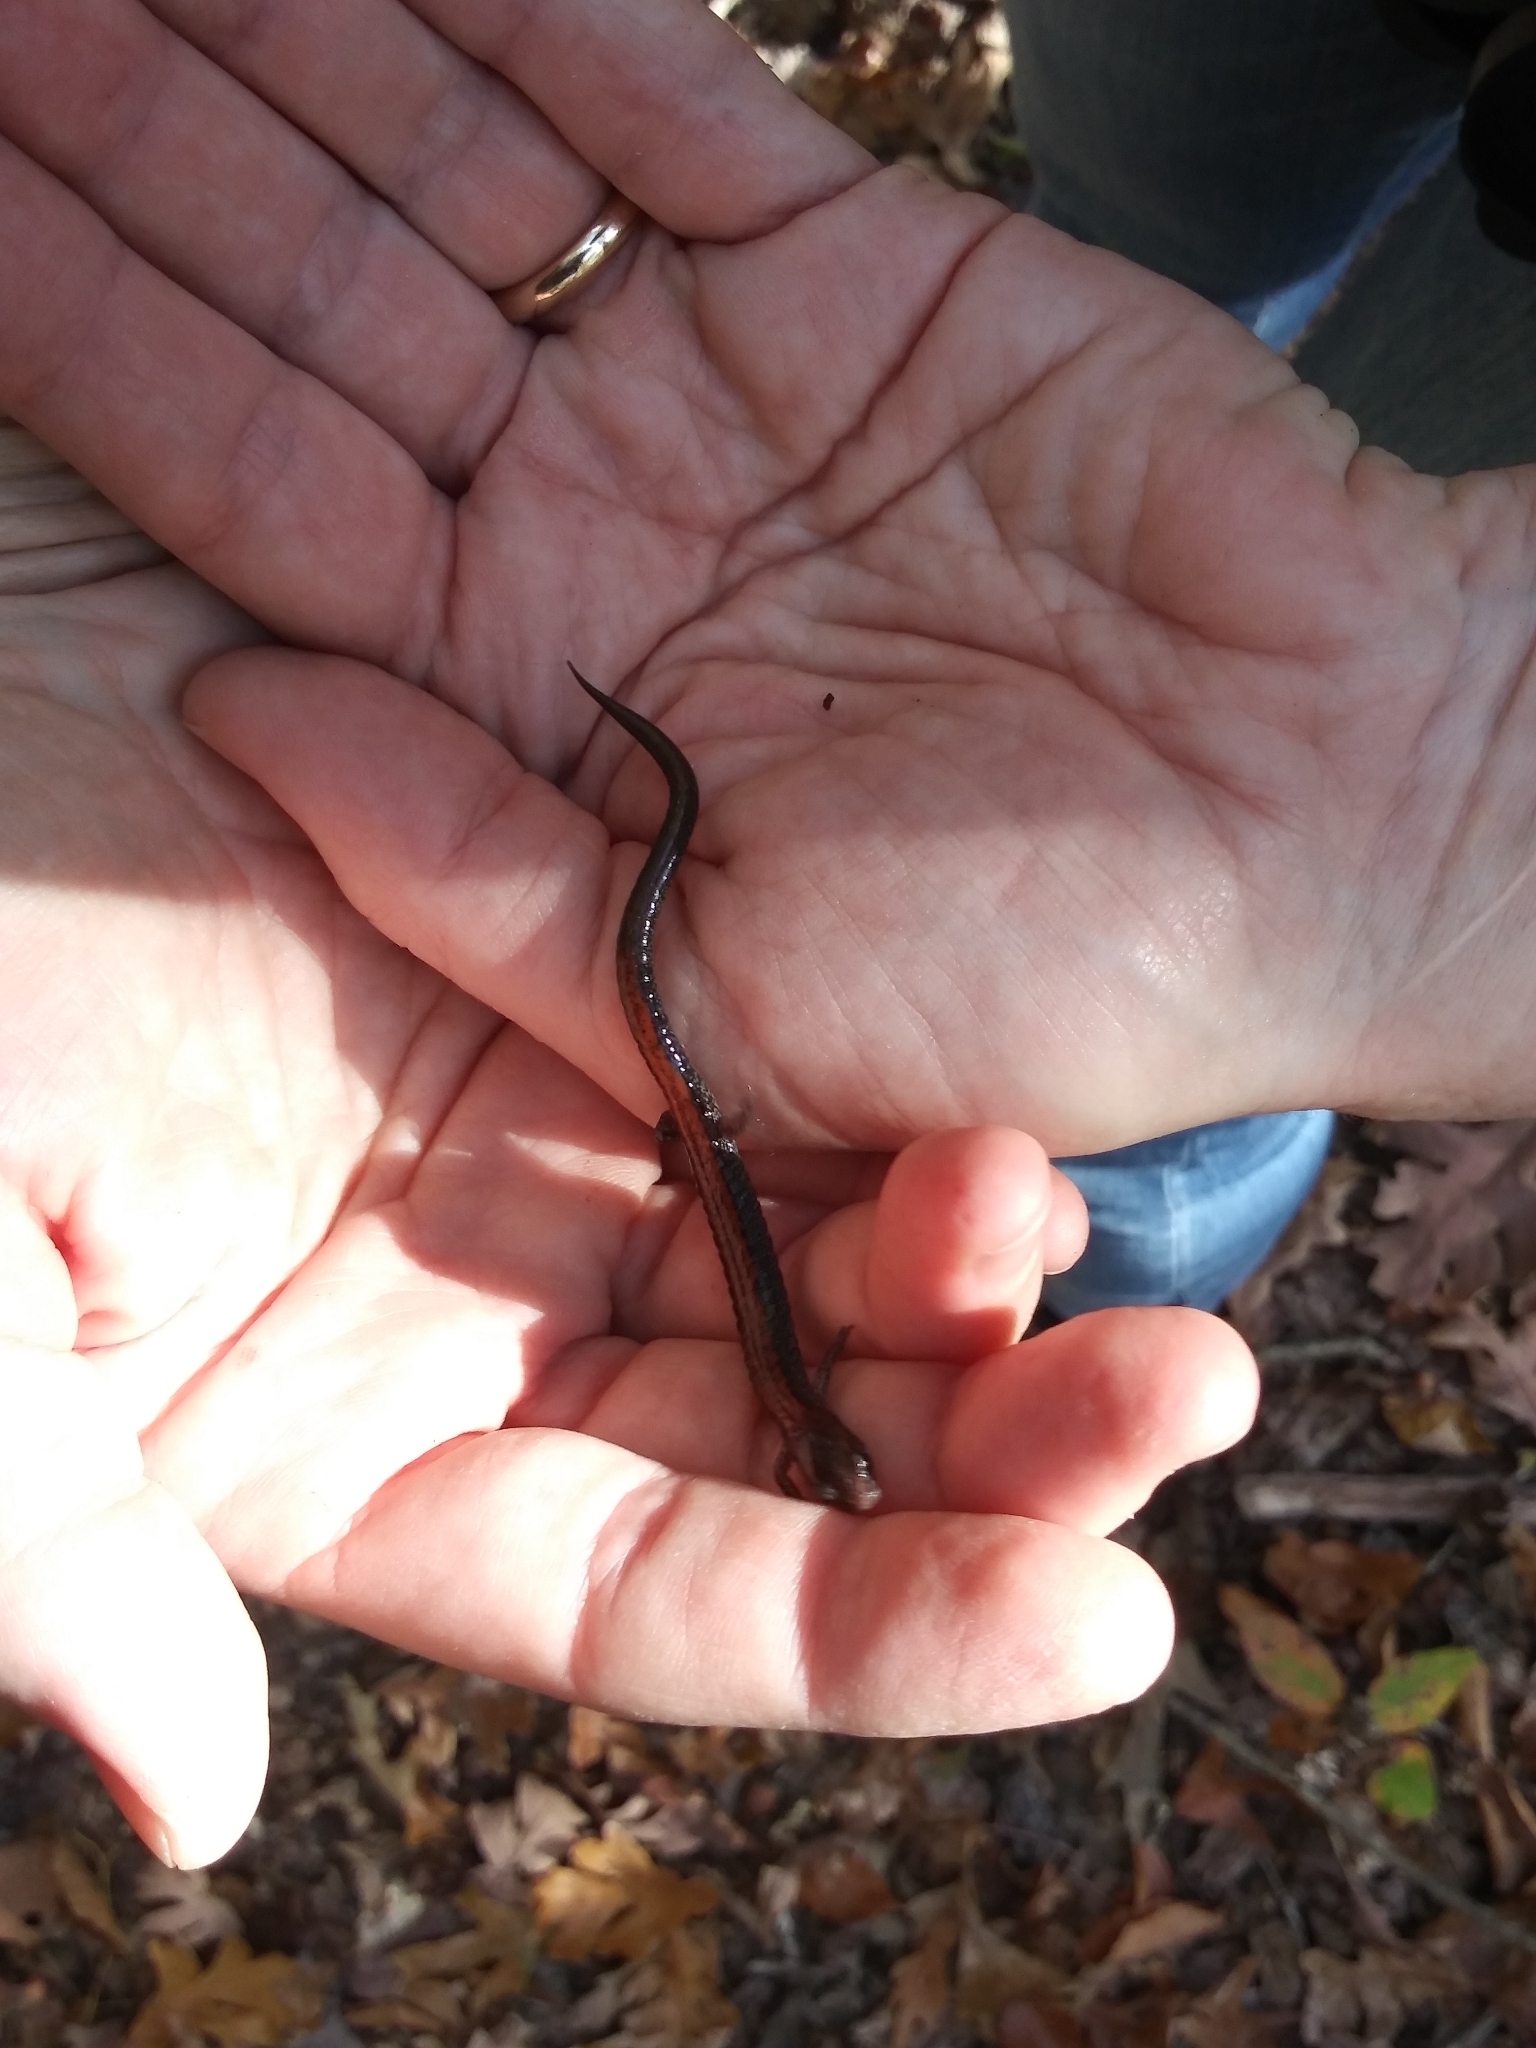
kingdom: Animalia
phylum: Chordata
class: Amphibia
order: Caudata
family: Plethodontidae
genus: Plethodon
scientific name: Plethodon cinereus
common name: Redback salamander
